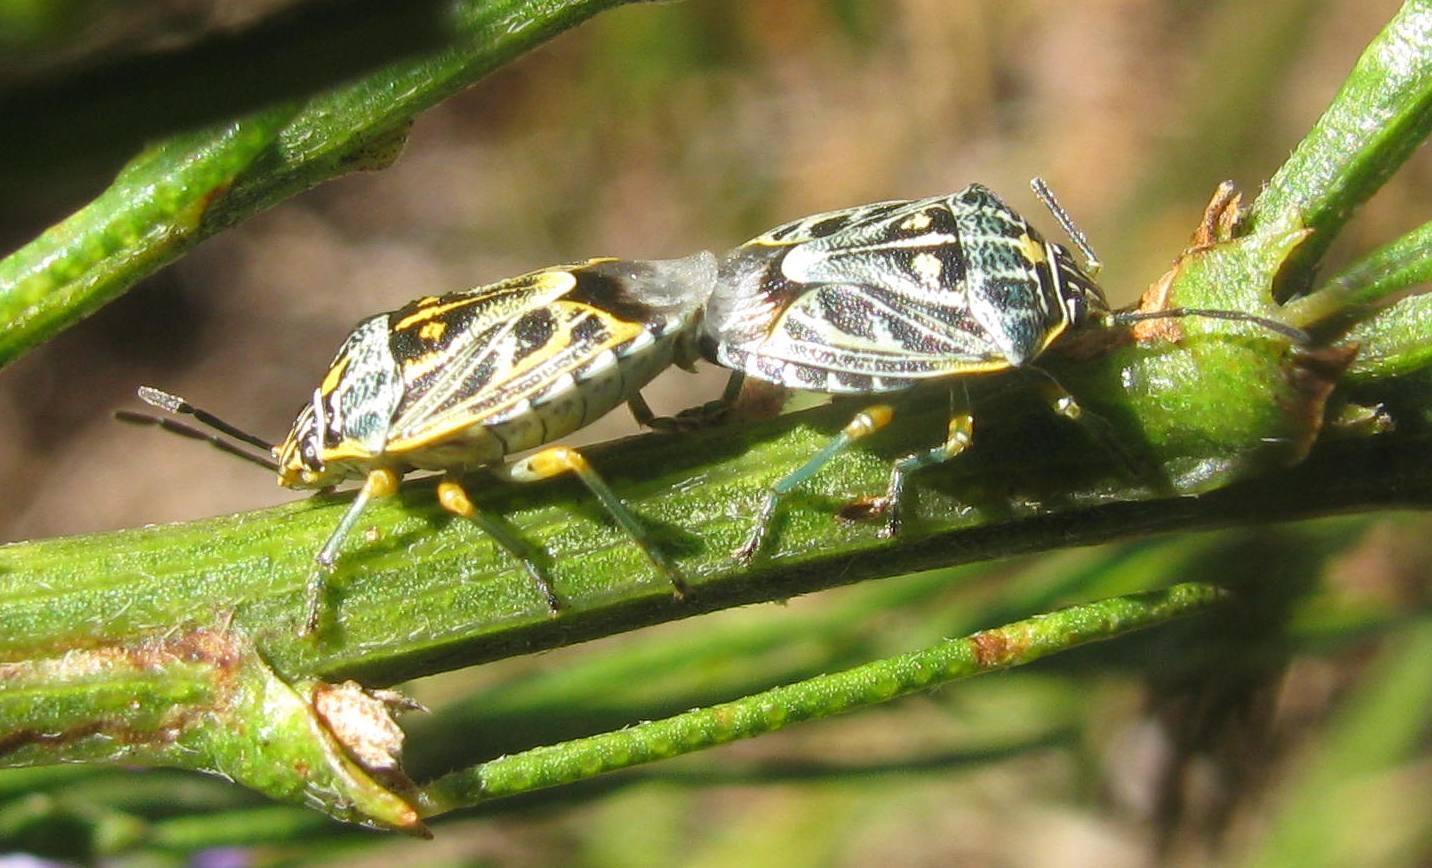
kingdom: Animalia
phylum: Arthropoda
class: Insecta
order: Hemiptera
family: Pentatomidae
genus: Antestiopsis
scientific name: Antestiopsis thunbergii
